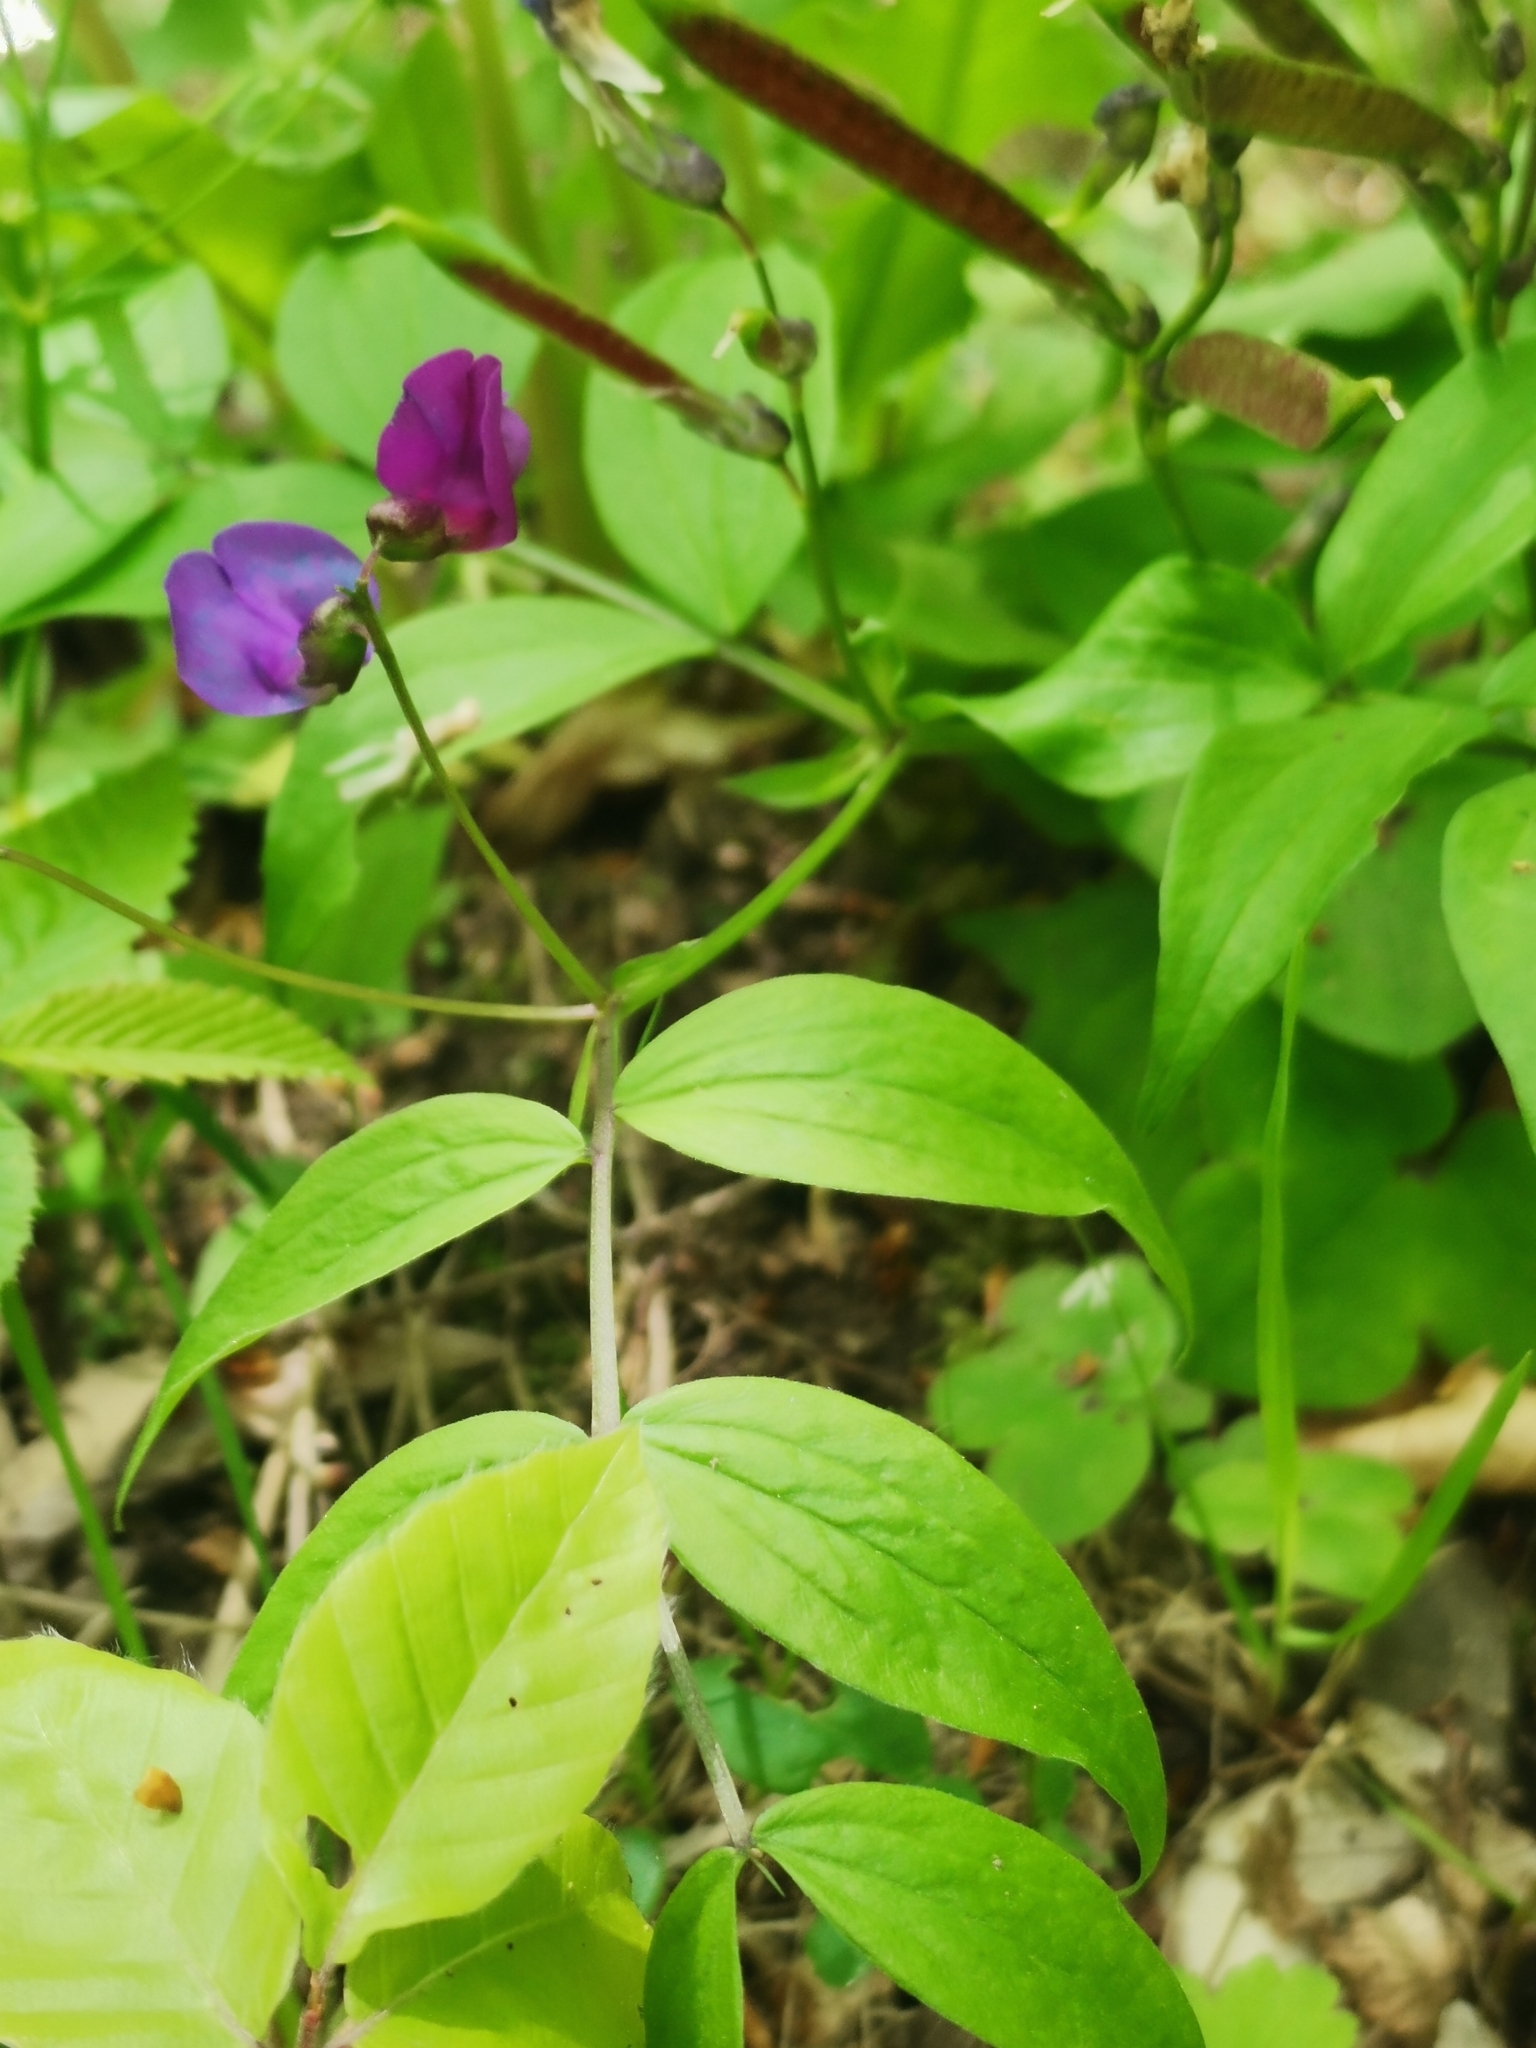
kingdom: Plantae
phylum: Tracheophyta
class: Magnoliopsida
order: Fabales
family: Fabaceae
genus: Lathyrus
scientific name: Lathyrus vernus
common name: Spring pea
